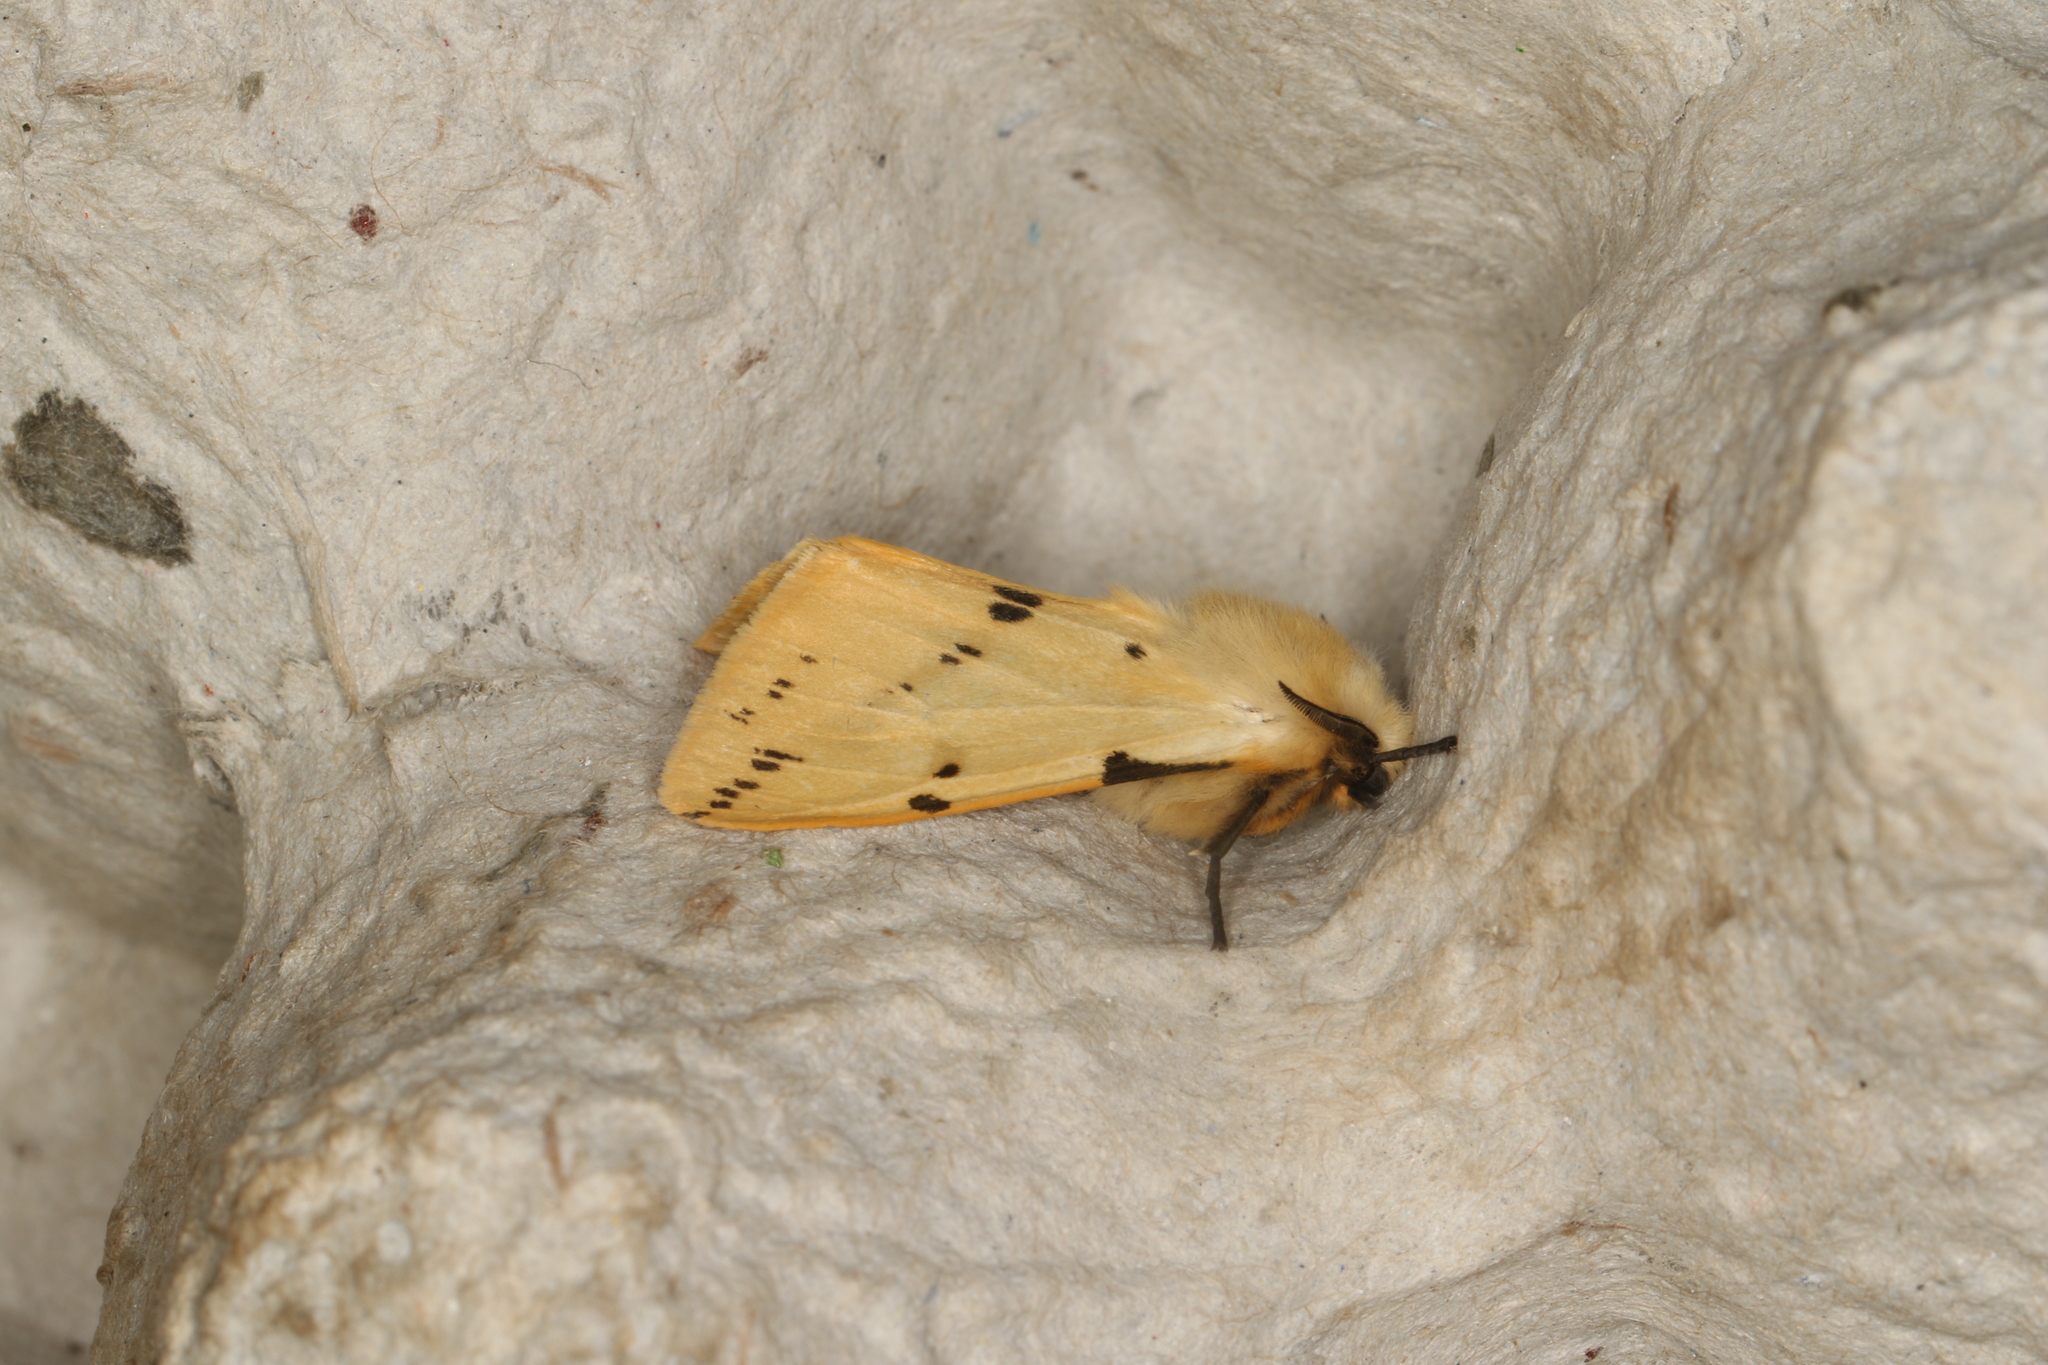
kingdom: Animalia
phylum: Arthropoda
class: Insecta
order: Lepidoptera
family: Erebidae
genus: Spilarctia
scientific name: Spilarctia lutea
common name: Buff ermine
